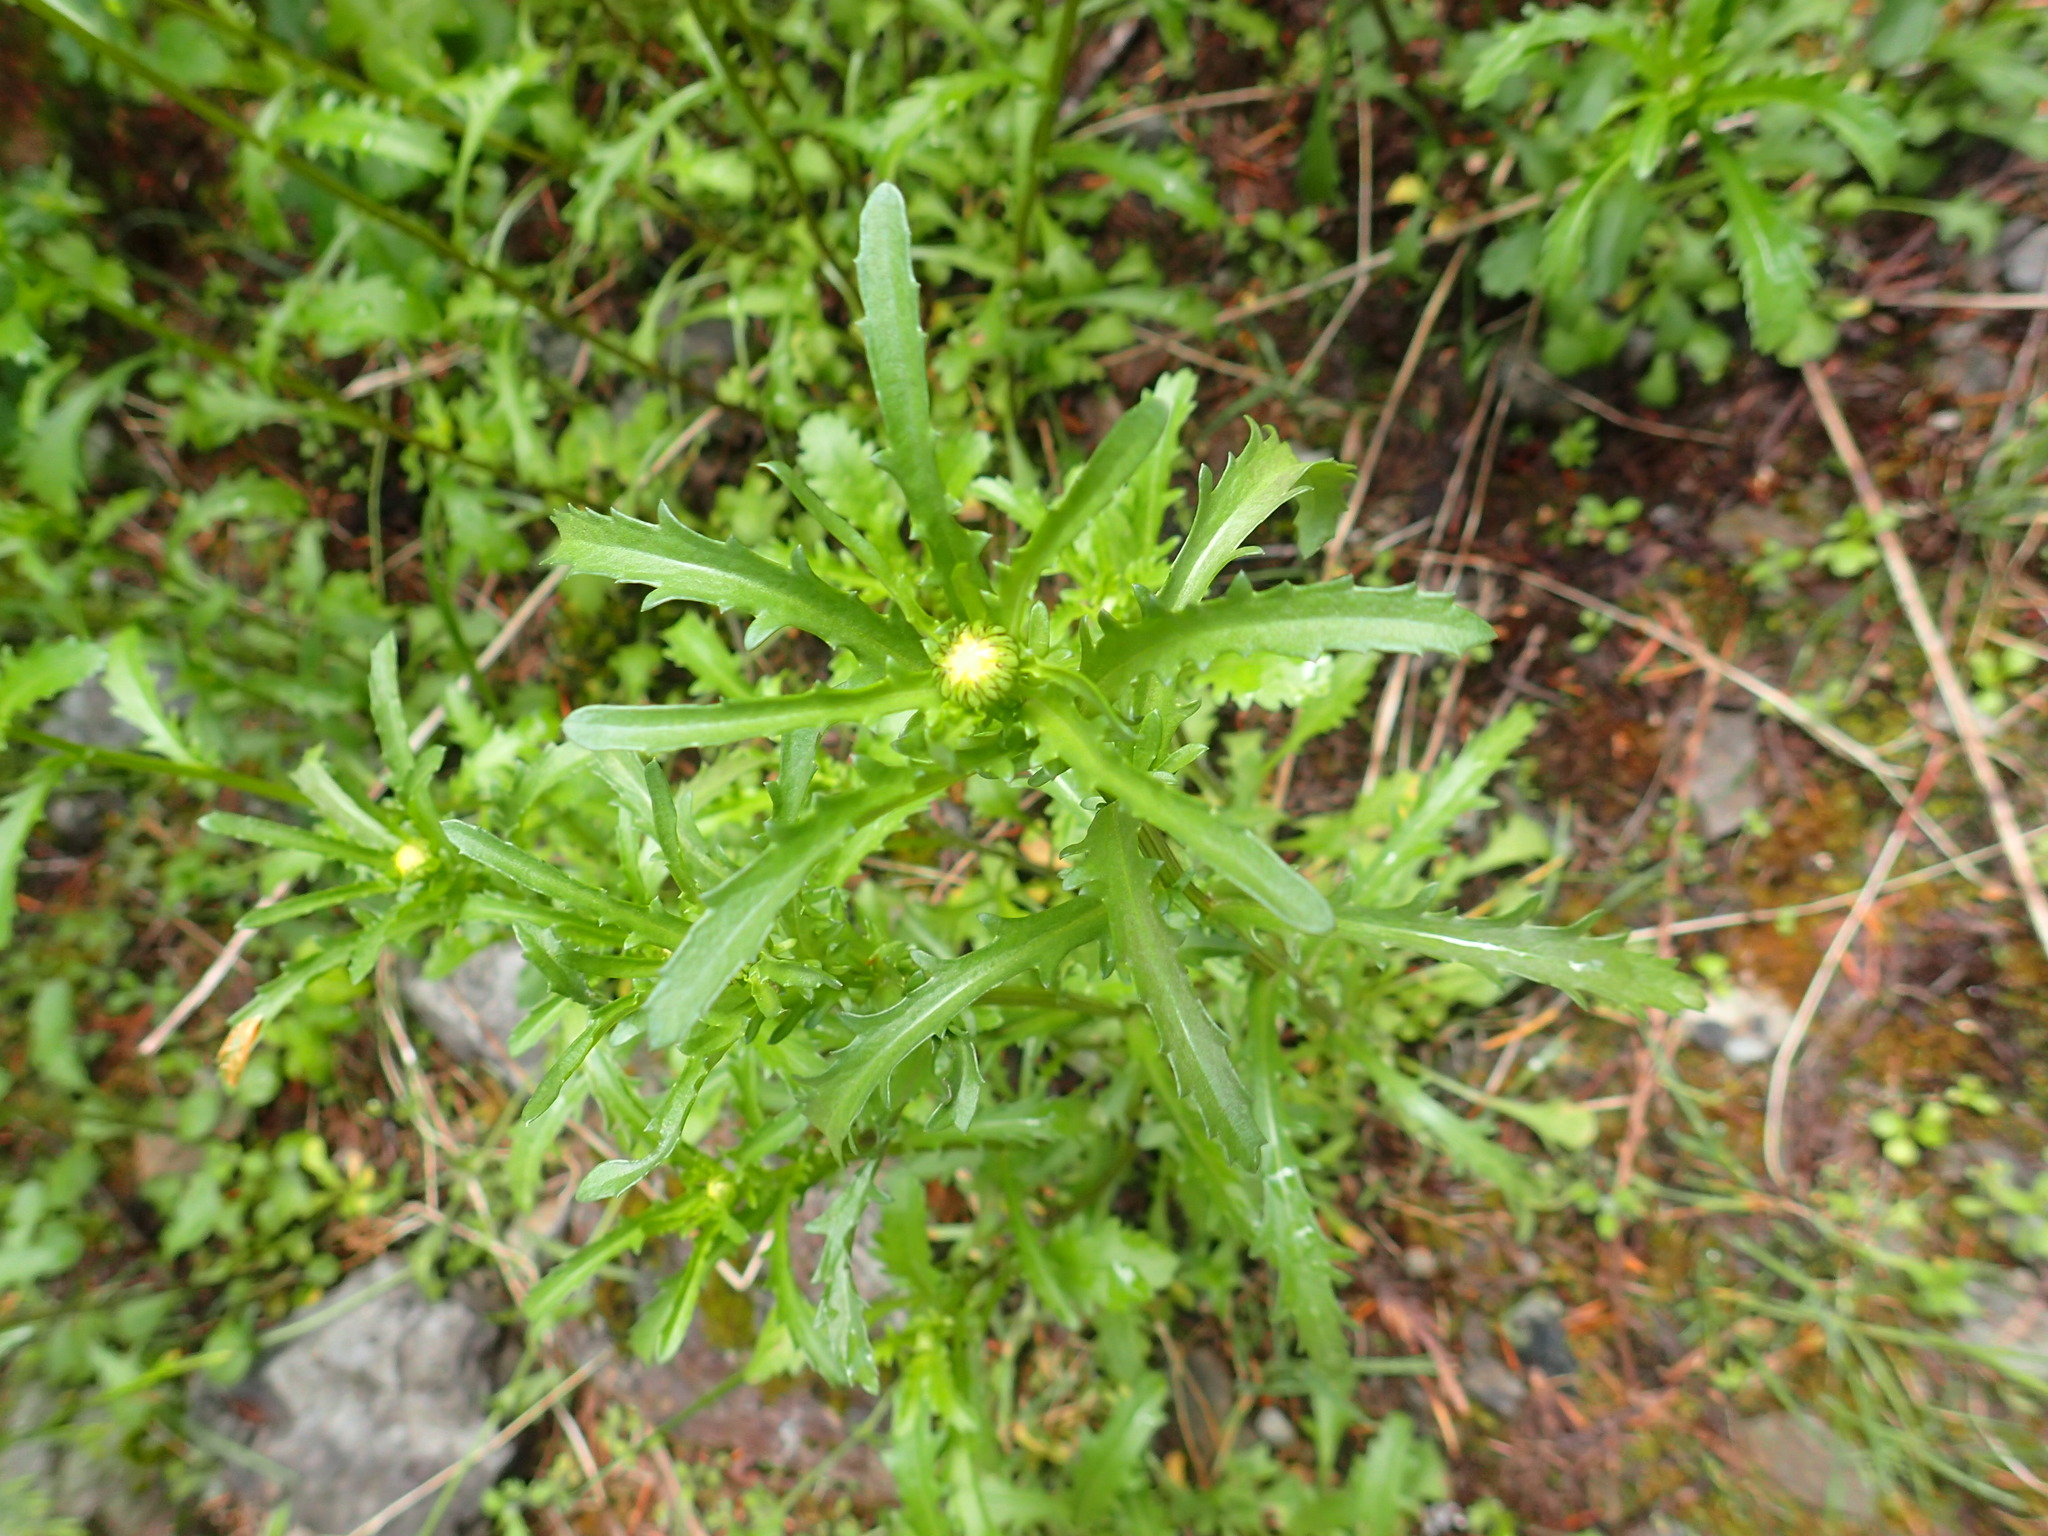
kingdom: Plantae
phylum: Tracheophyta
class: Magnoliopsida
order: Asterales
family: Asteraceae
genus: Leucanthemum
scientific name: Leucanthemum vulgare
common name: Oxeye daisy
